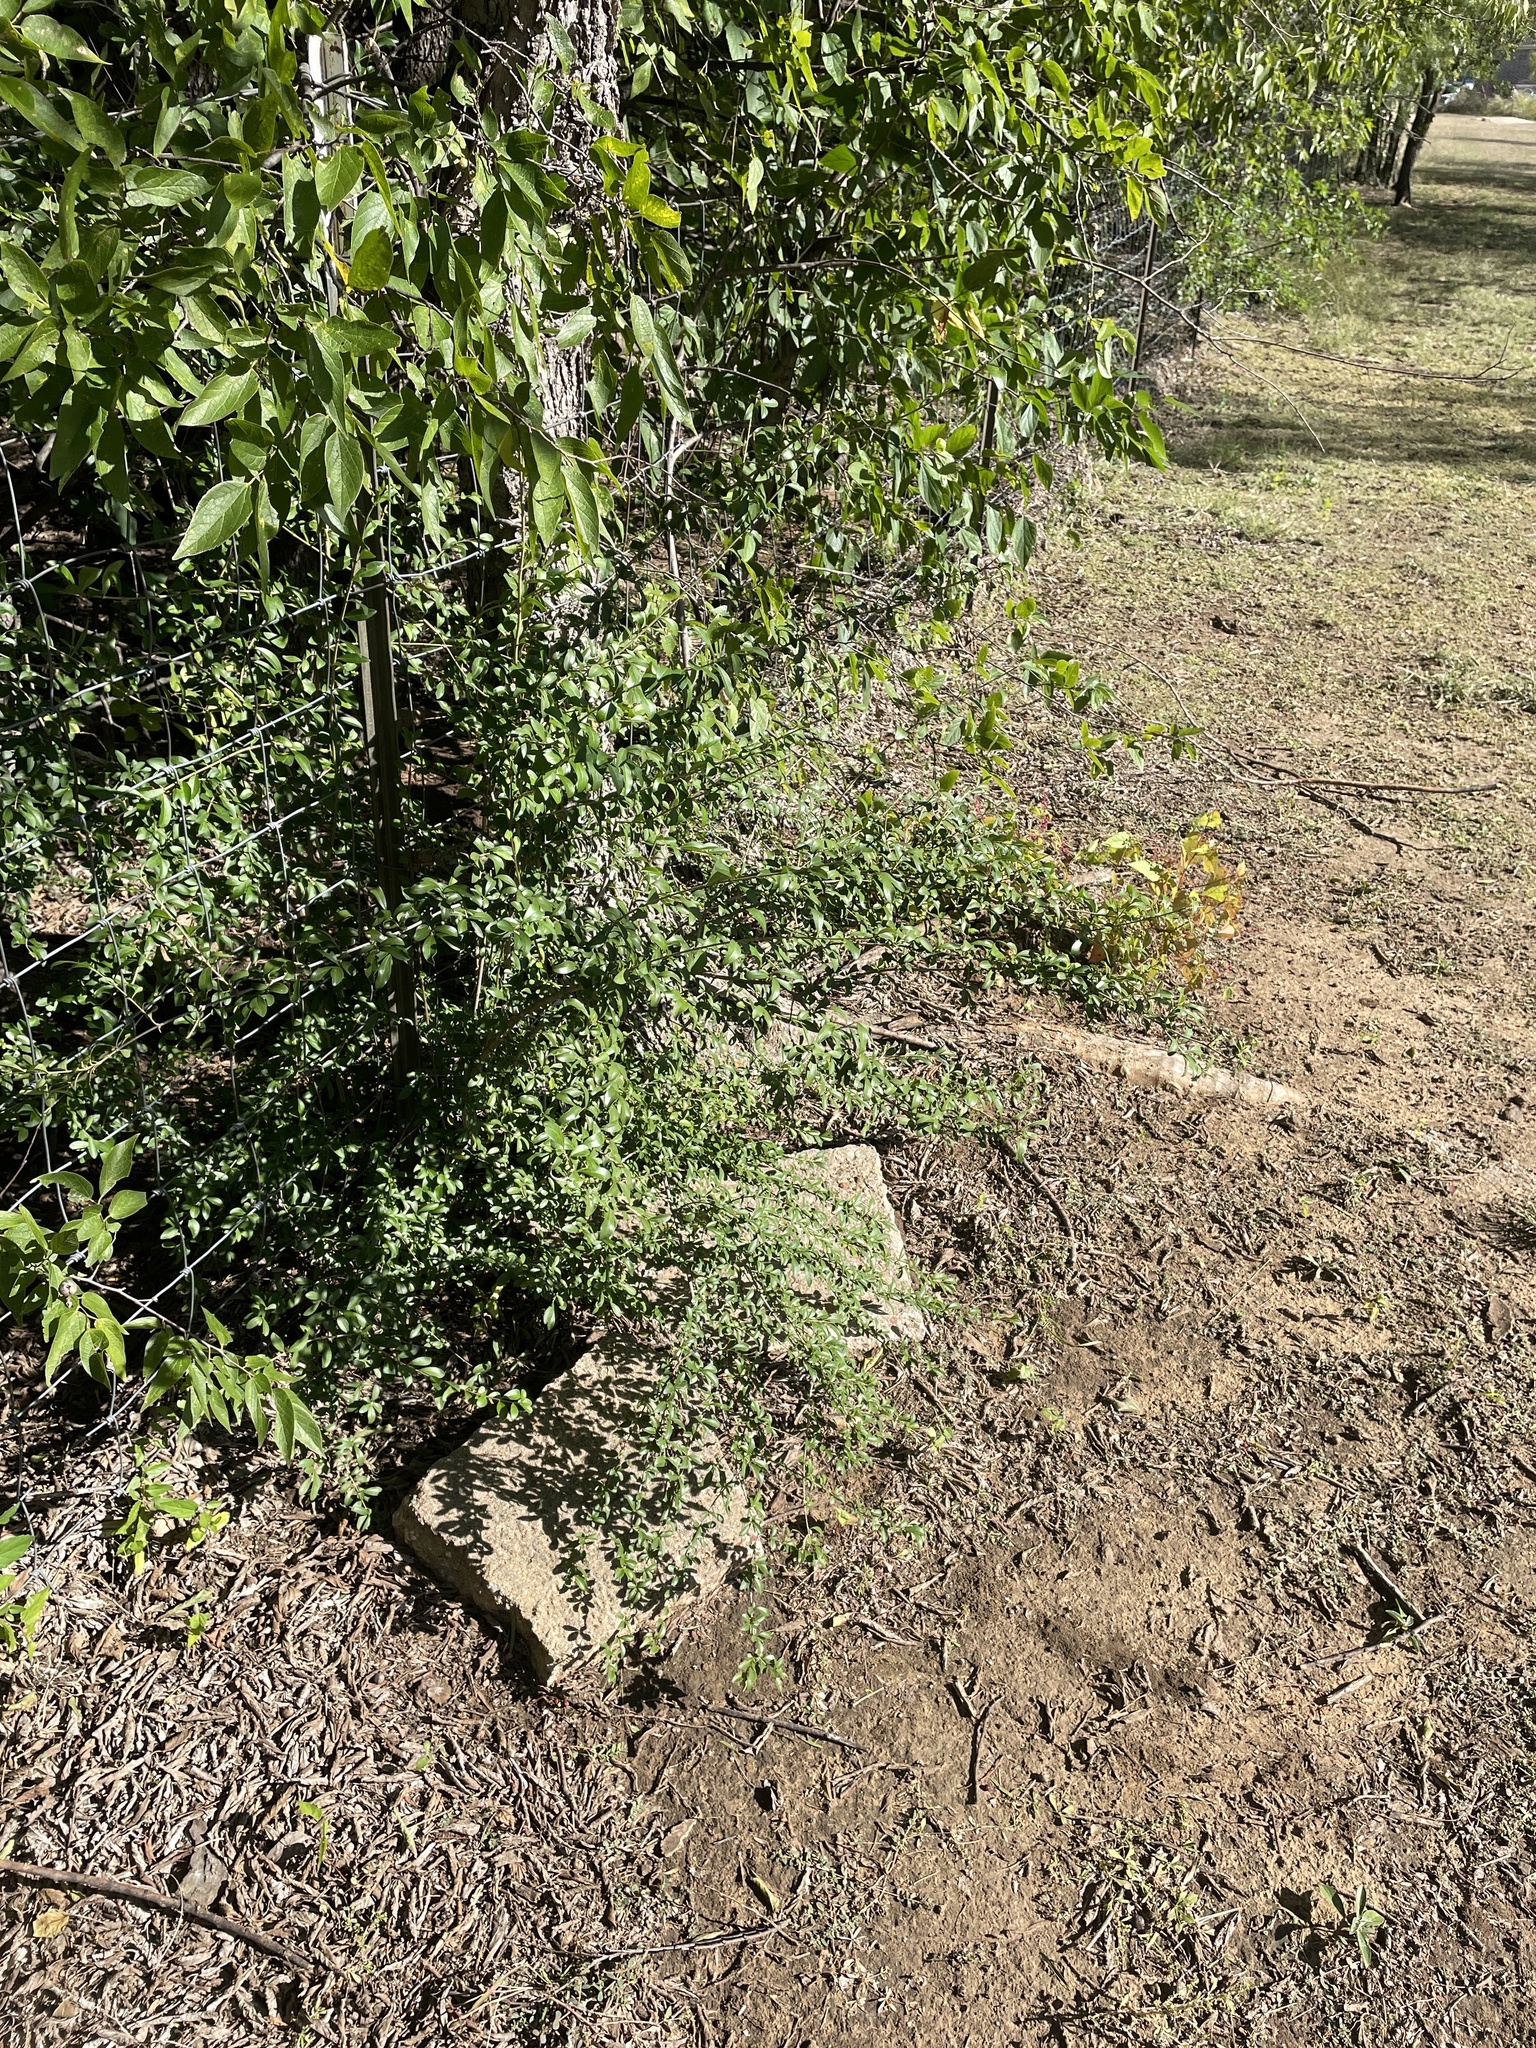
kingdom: Plantae
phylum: Tracheophyta
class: Magnoliopsida
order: Lamiales
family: Oleaceae
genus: Ligustrum
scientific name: Ligustrum quihoui
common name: Waxyleaf privet
